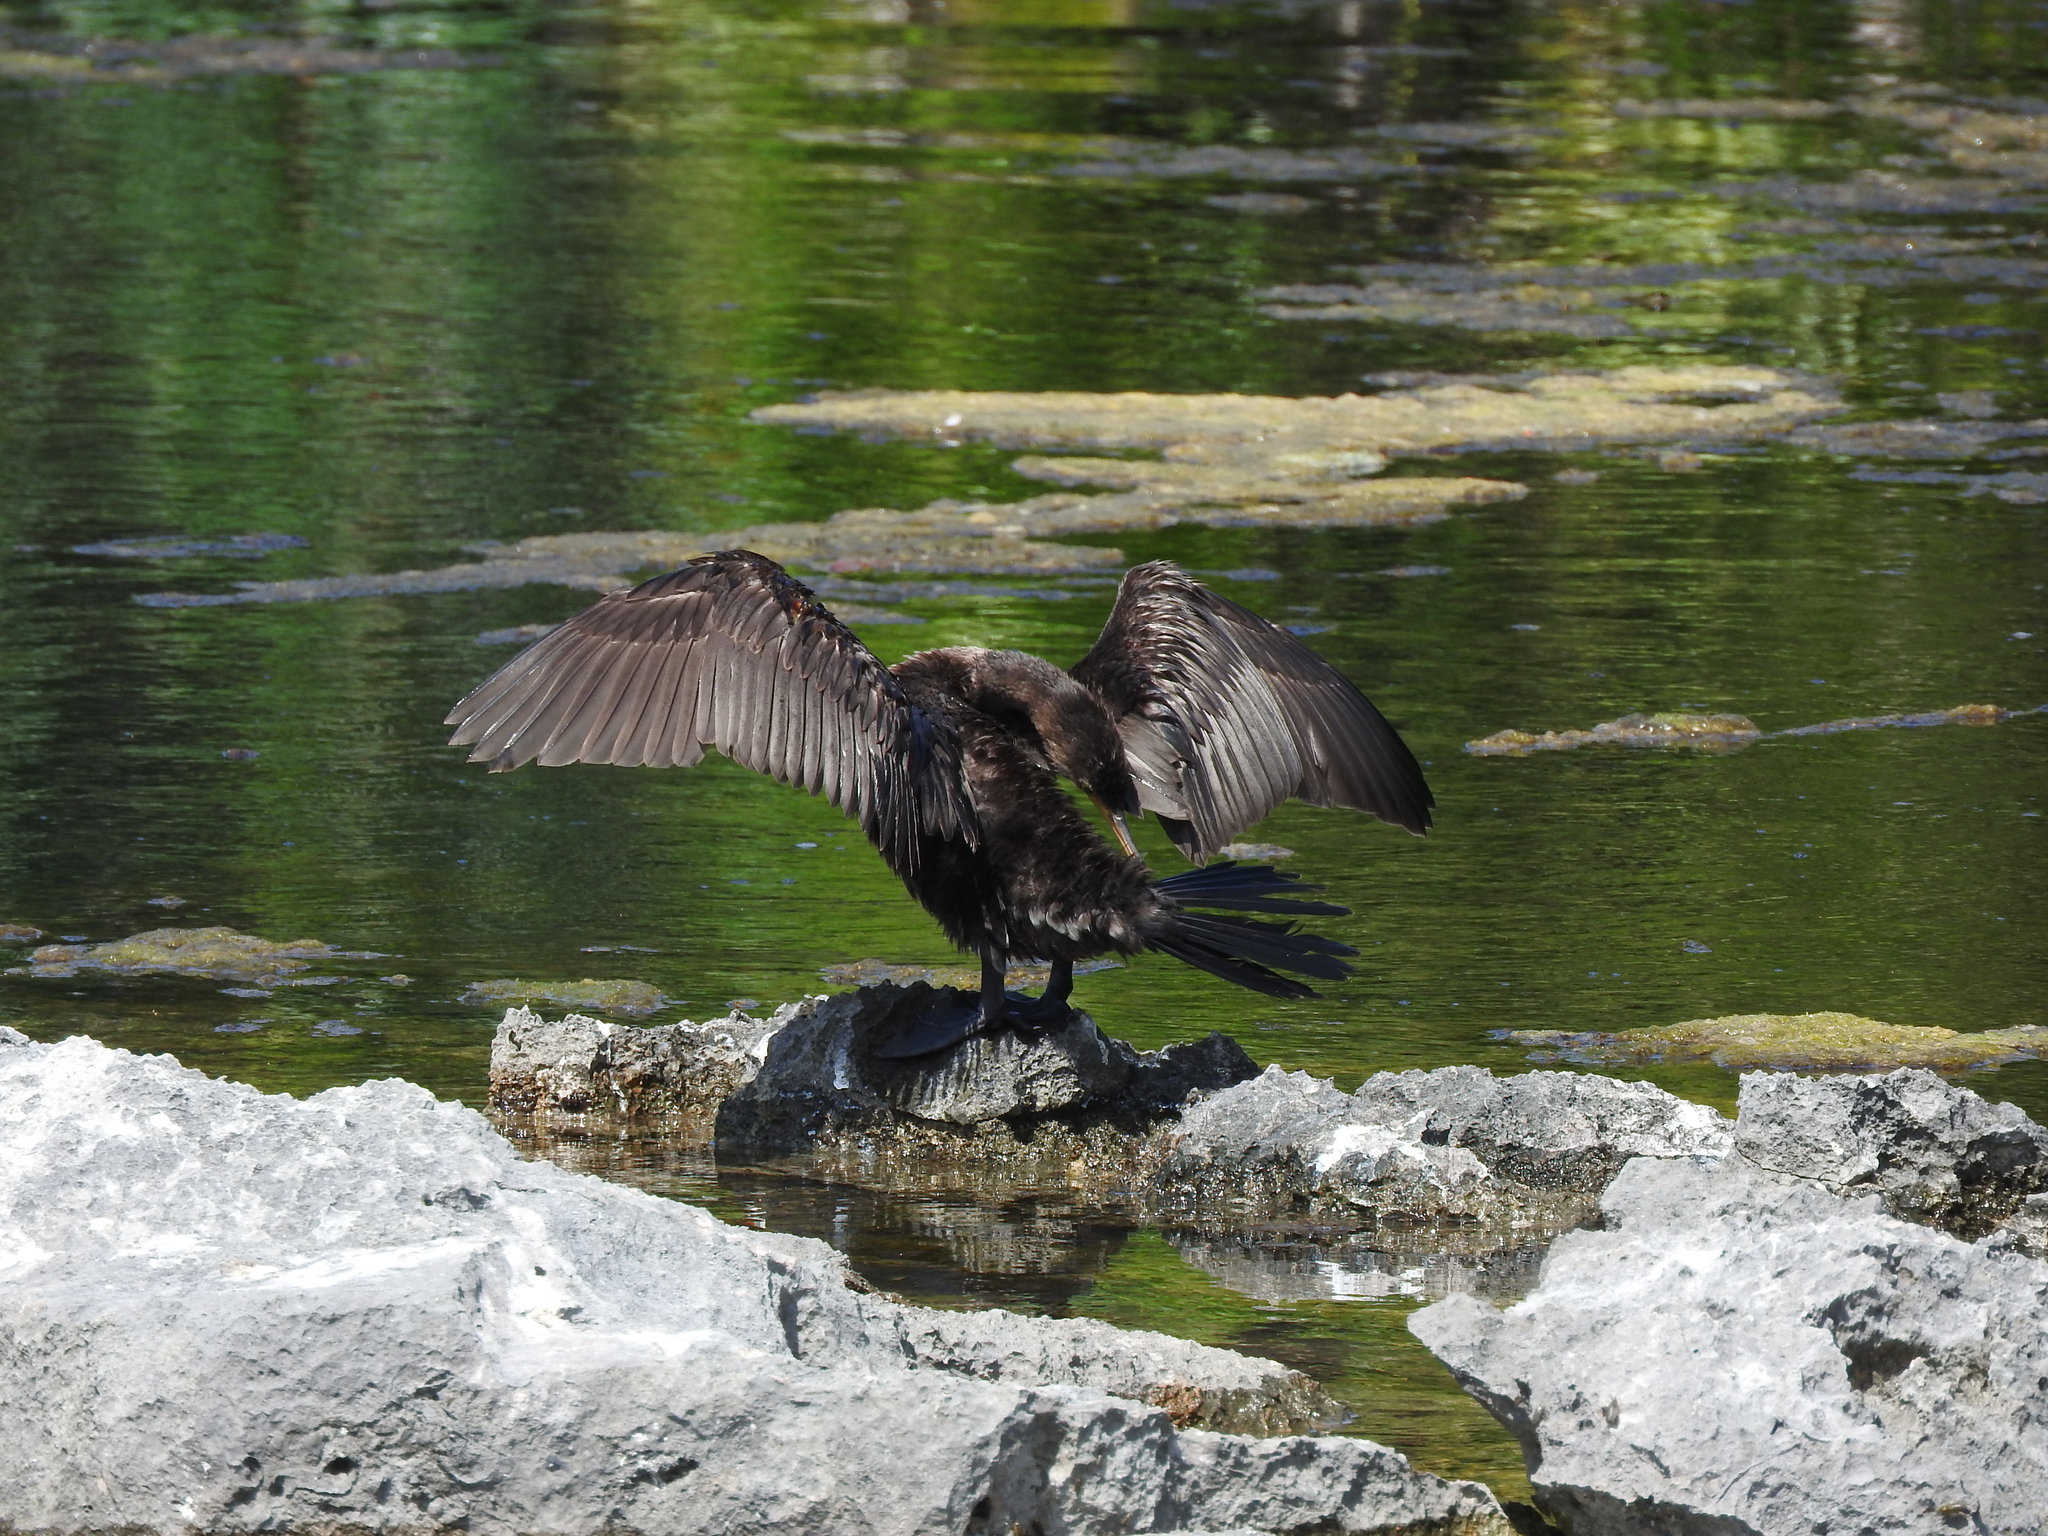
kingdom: Animalia
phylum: Chordata
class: Aves
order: Suliformes
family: Phalacrocoracidae
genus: Phalacrocorax
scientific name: Phalacrocorax auritus
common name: Double-crested cormorant
